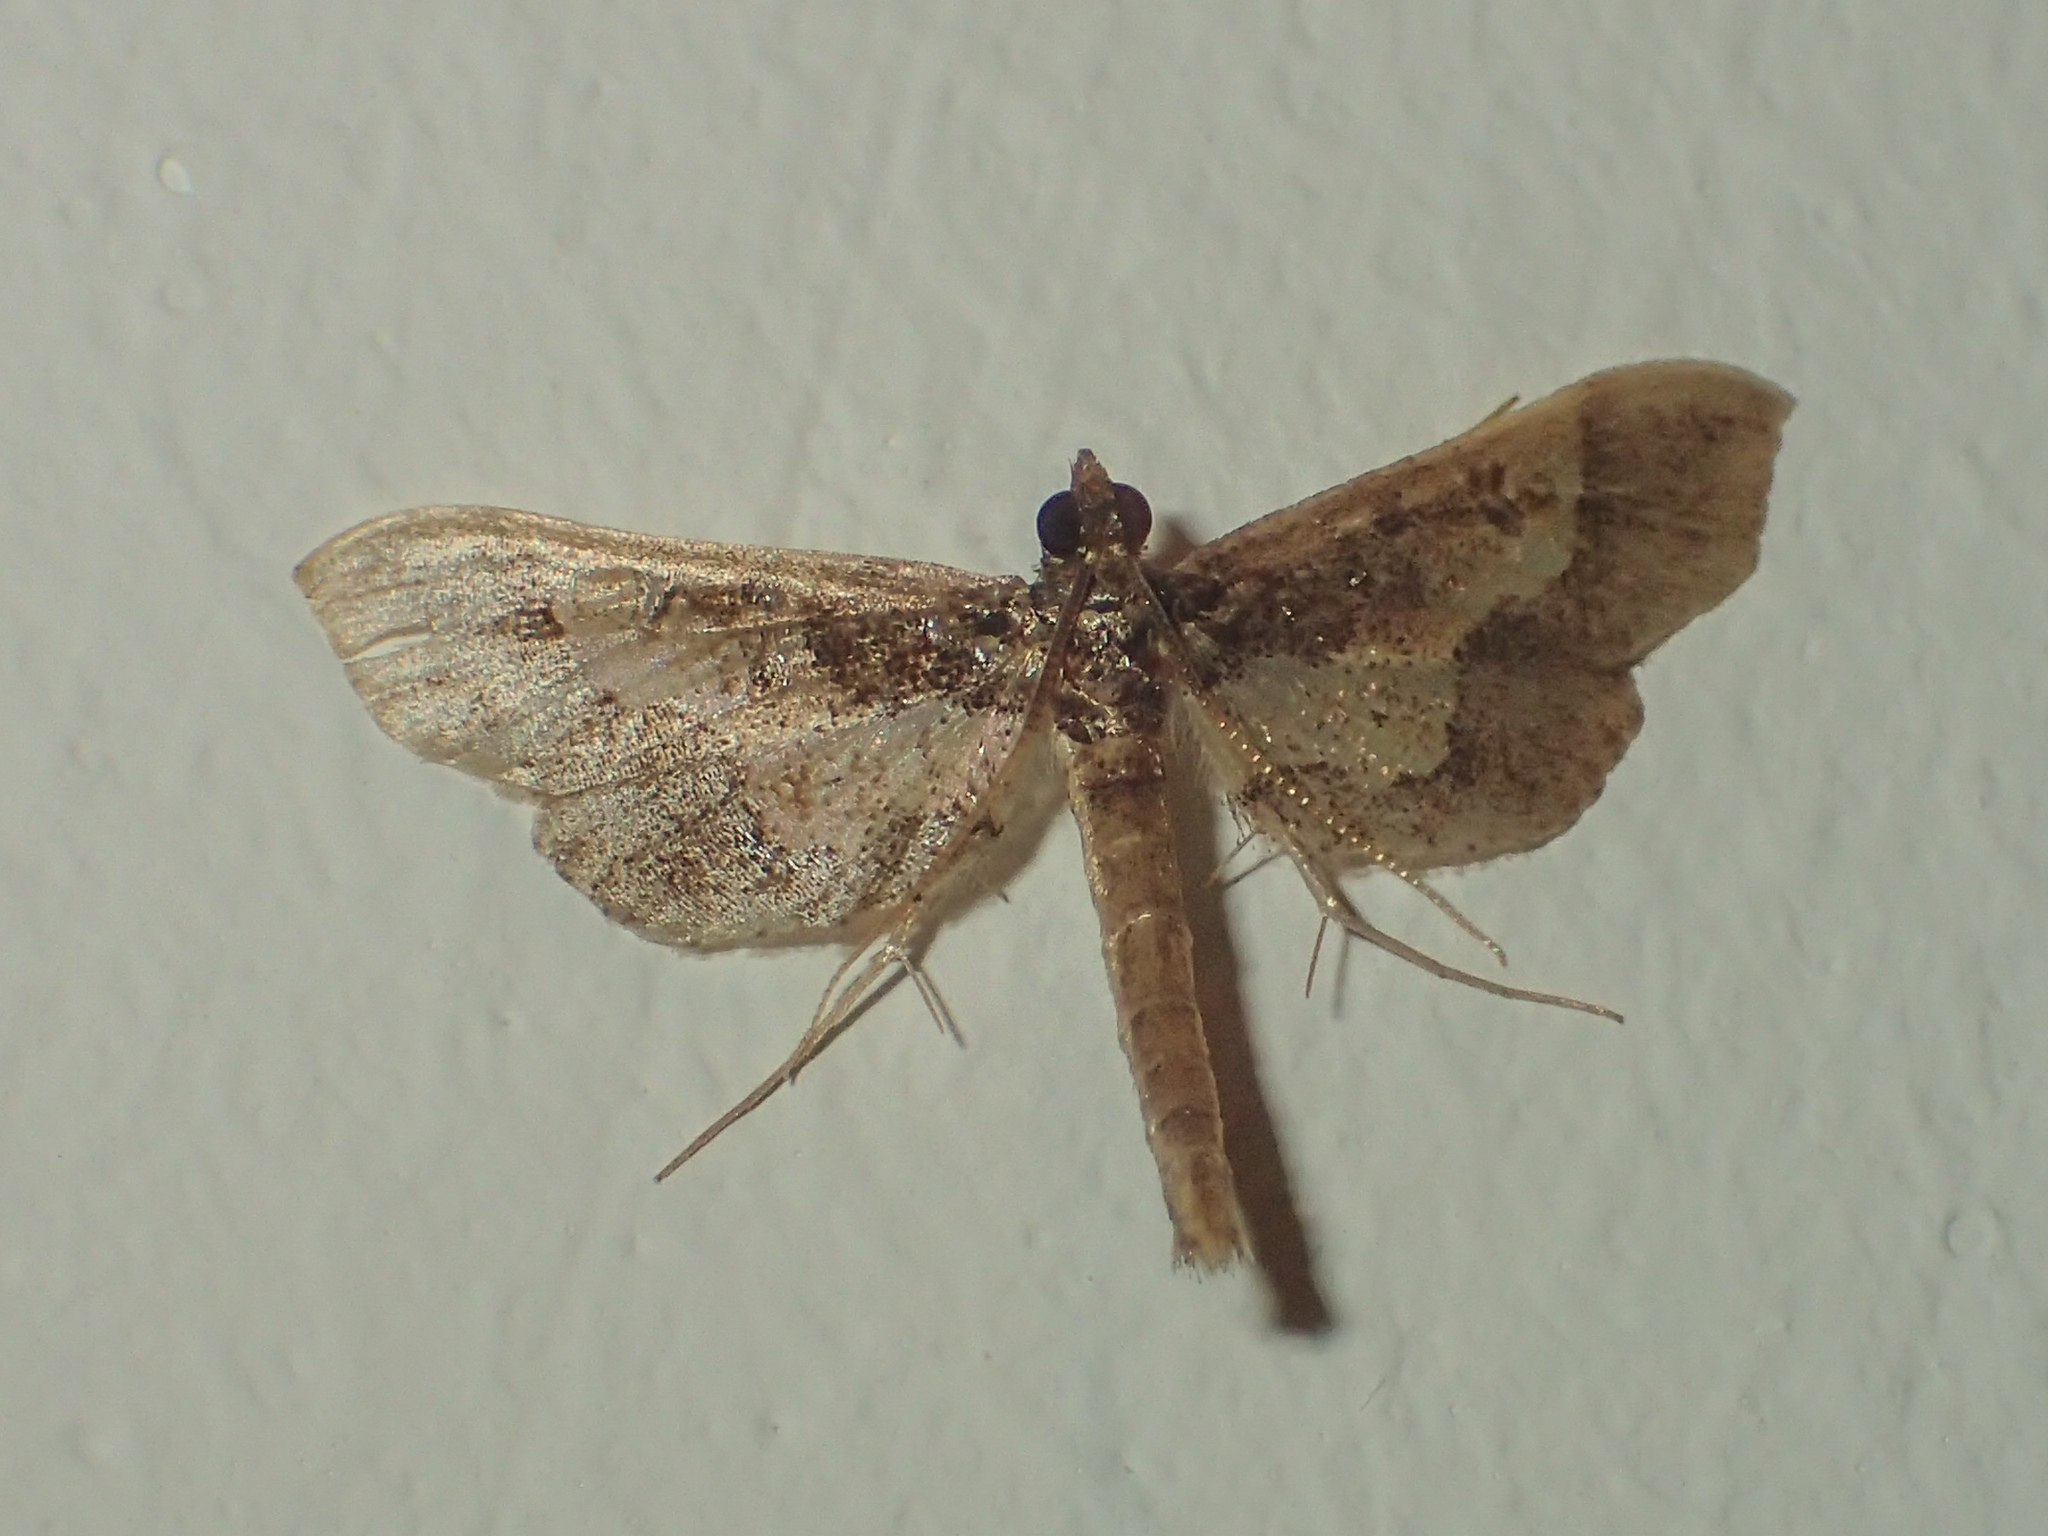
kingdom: Animalia
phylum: Arthropoda
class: Insecta
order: Lepidoptera
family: Crambidae
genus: Hydriris
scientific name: Hydriris ornatalis
